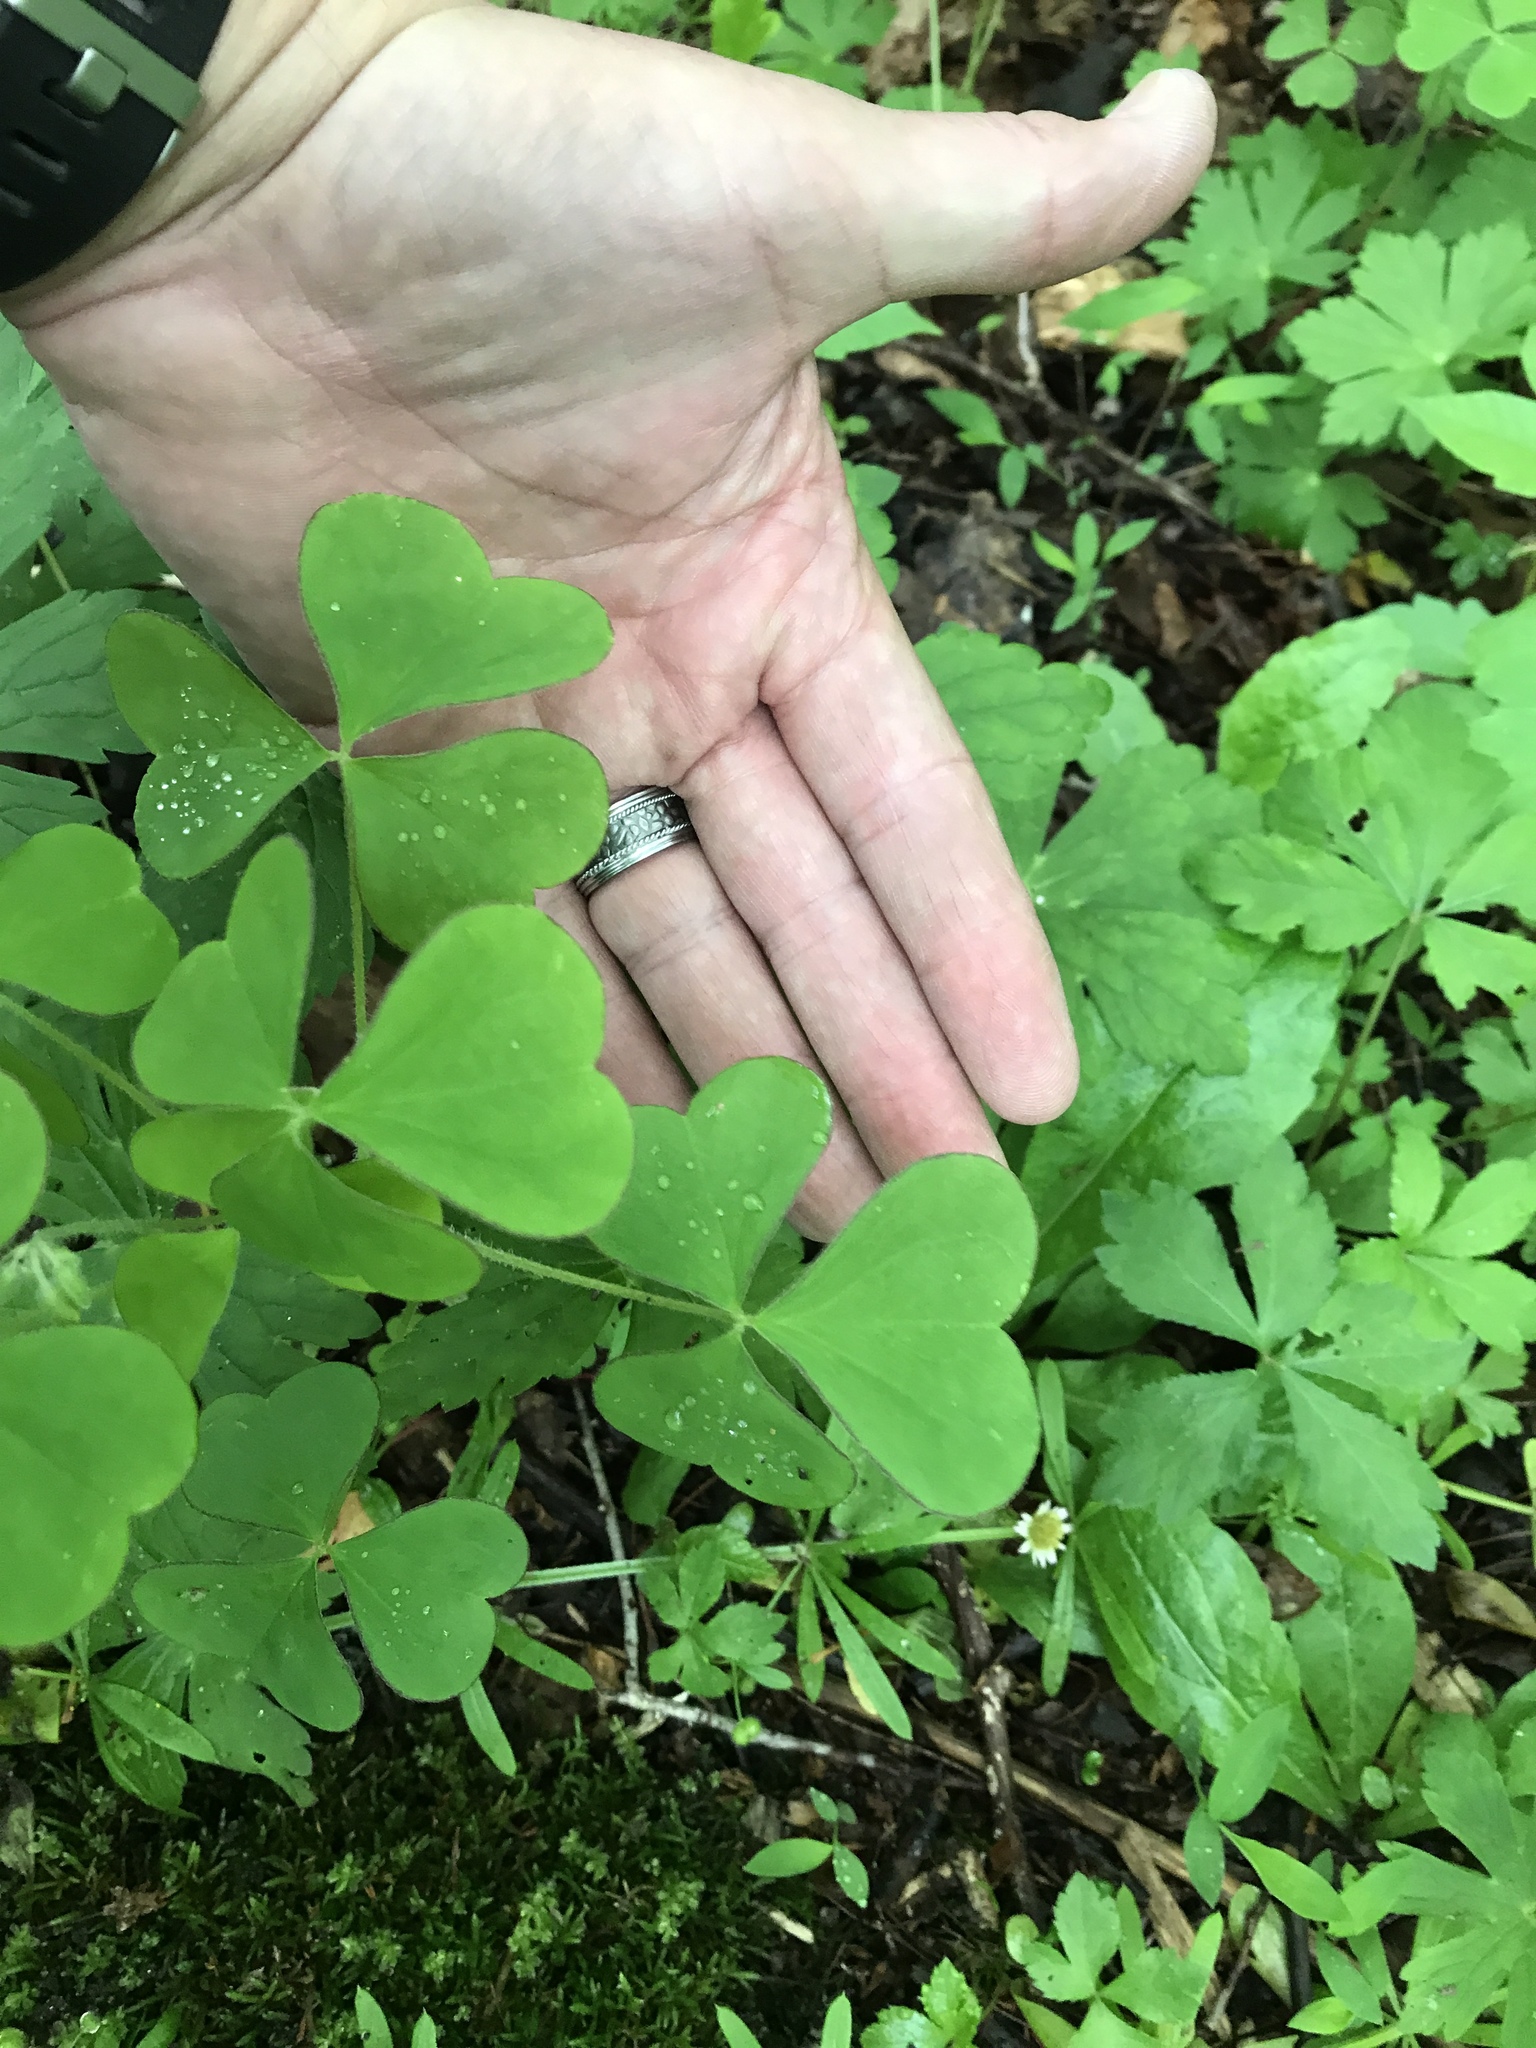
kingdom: Plantae
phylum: Tracheophyta
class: Magnoliopsida
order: Oxalidales
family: Oxalidaceae
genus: Oxalis
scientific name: Oxalis grandis
